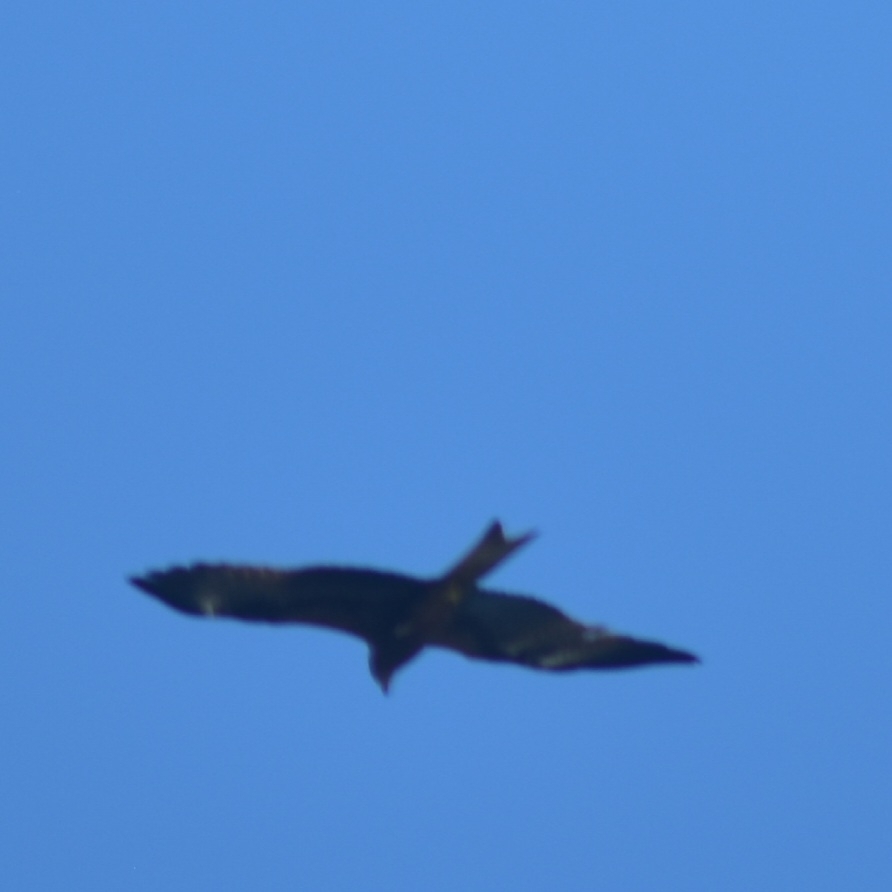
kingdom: Animalia
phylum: Chordata
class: Aves
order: Accipitriformes
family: Accipitridae
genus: Milvus
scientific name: Milvus migrans
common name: Black kite
